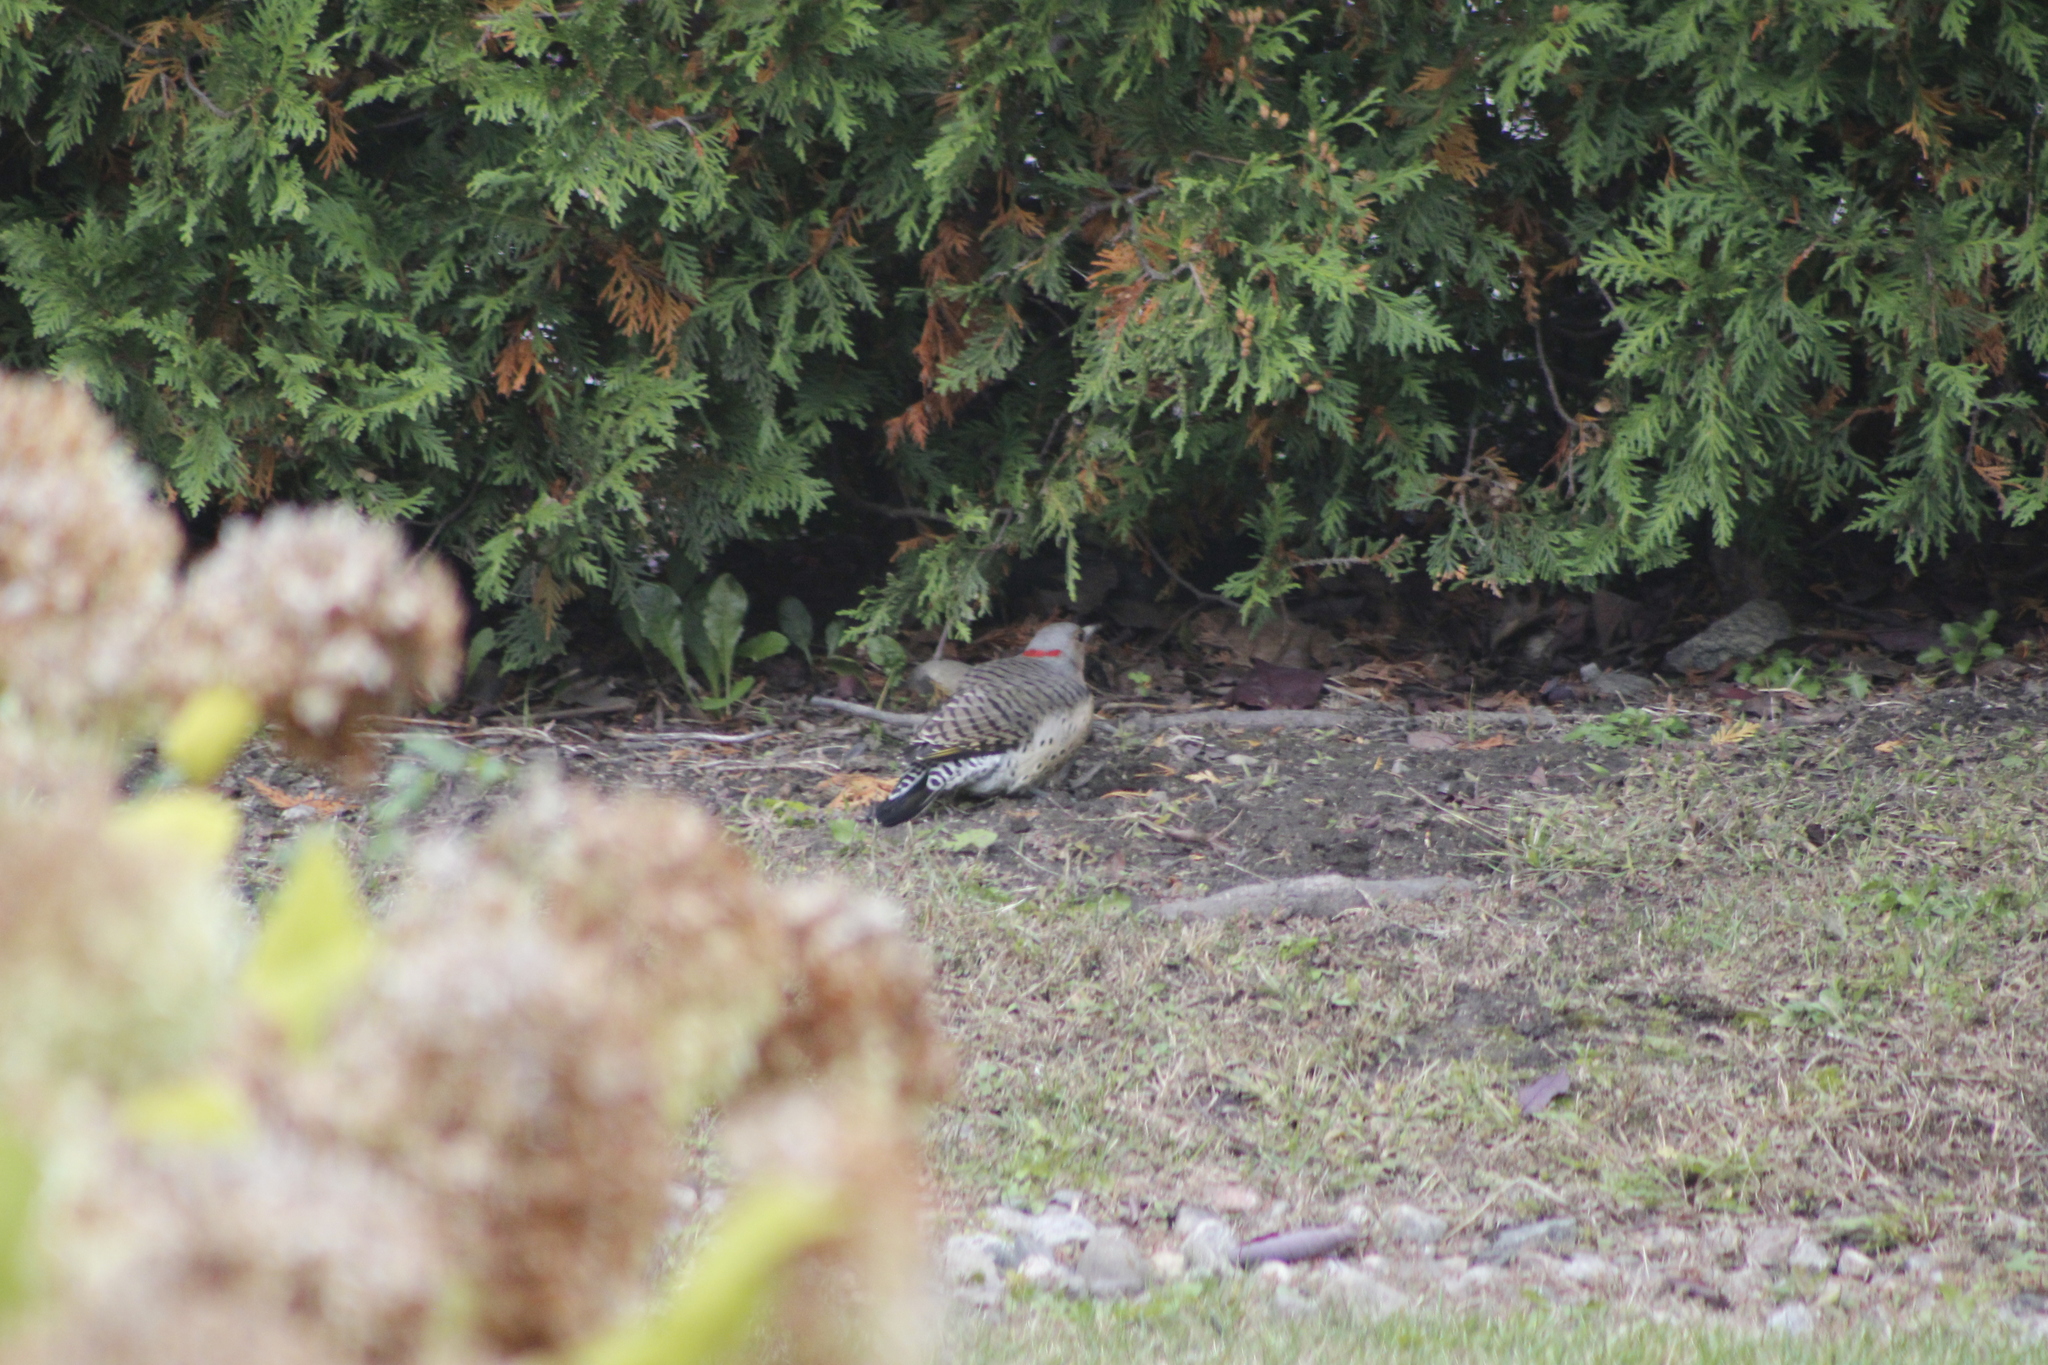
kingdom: Animalia
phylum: Chordata
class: Aves
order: Piciformes
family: Picidae
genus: Colaptes
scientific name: Colaptes auratus
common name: Northern flicker
